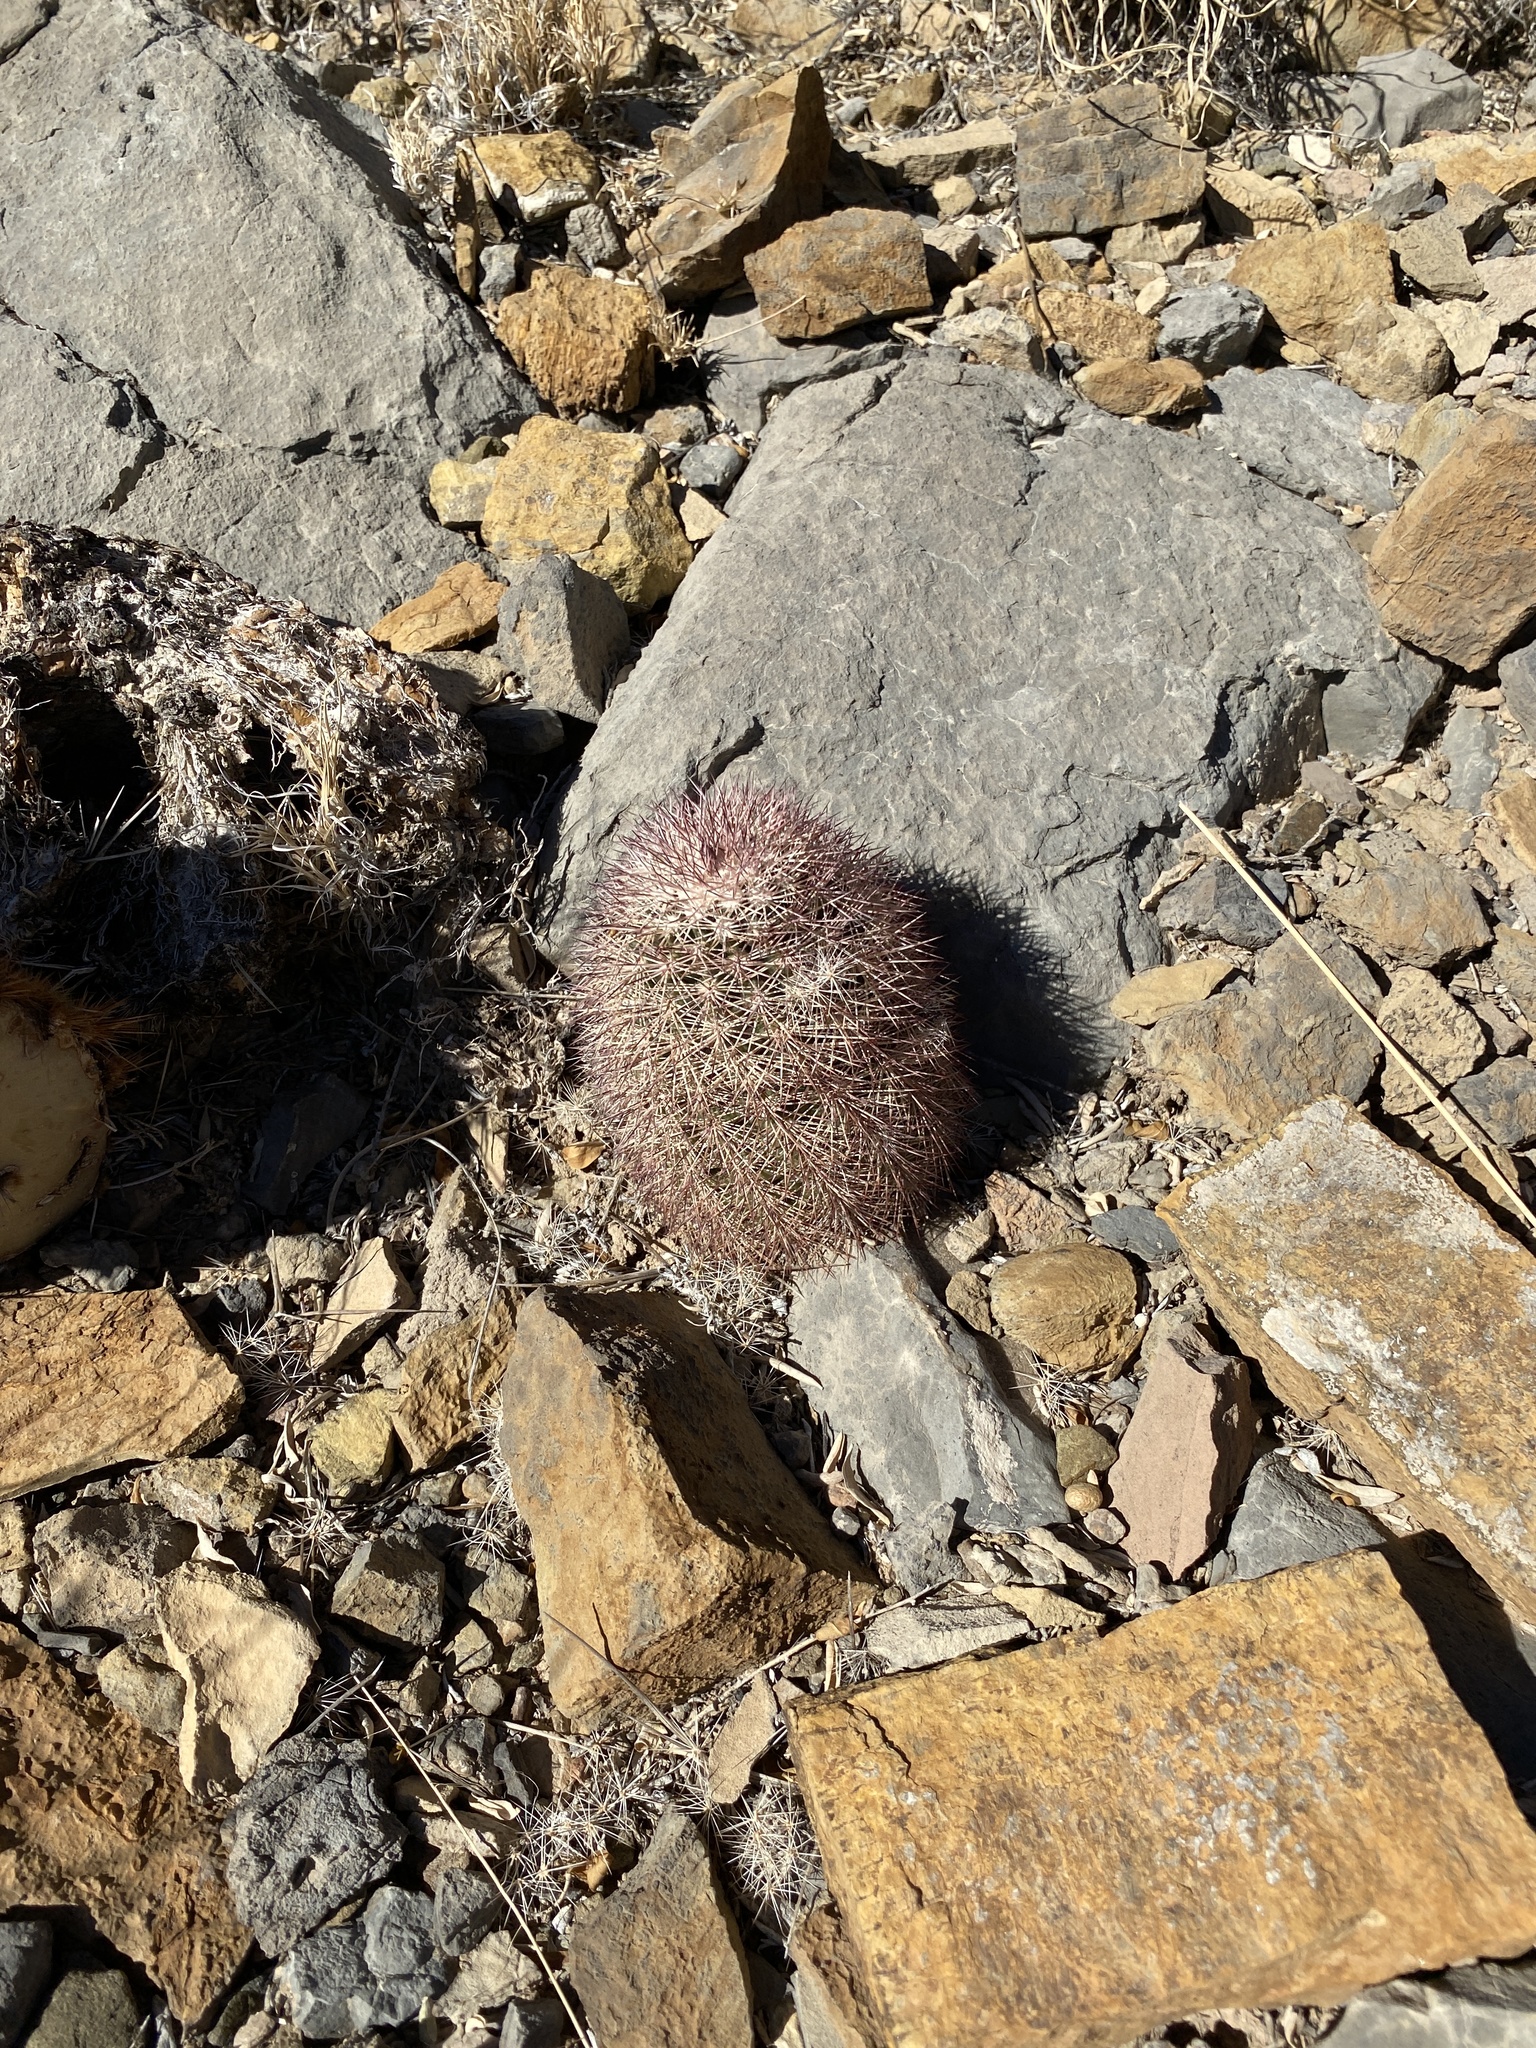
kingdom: Plantae
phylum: Tracheophyta
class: Magnoliopsida
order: Caryophyllales
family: Cactaceae
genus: Echinocereus
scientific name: Echinocereus dasyacanthus
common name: Spiny hedgehog cactus
